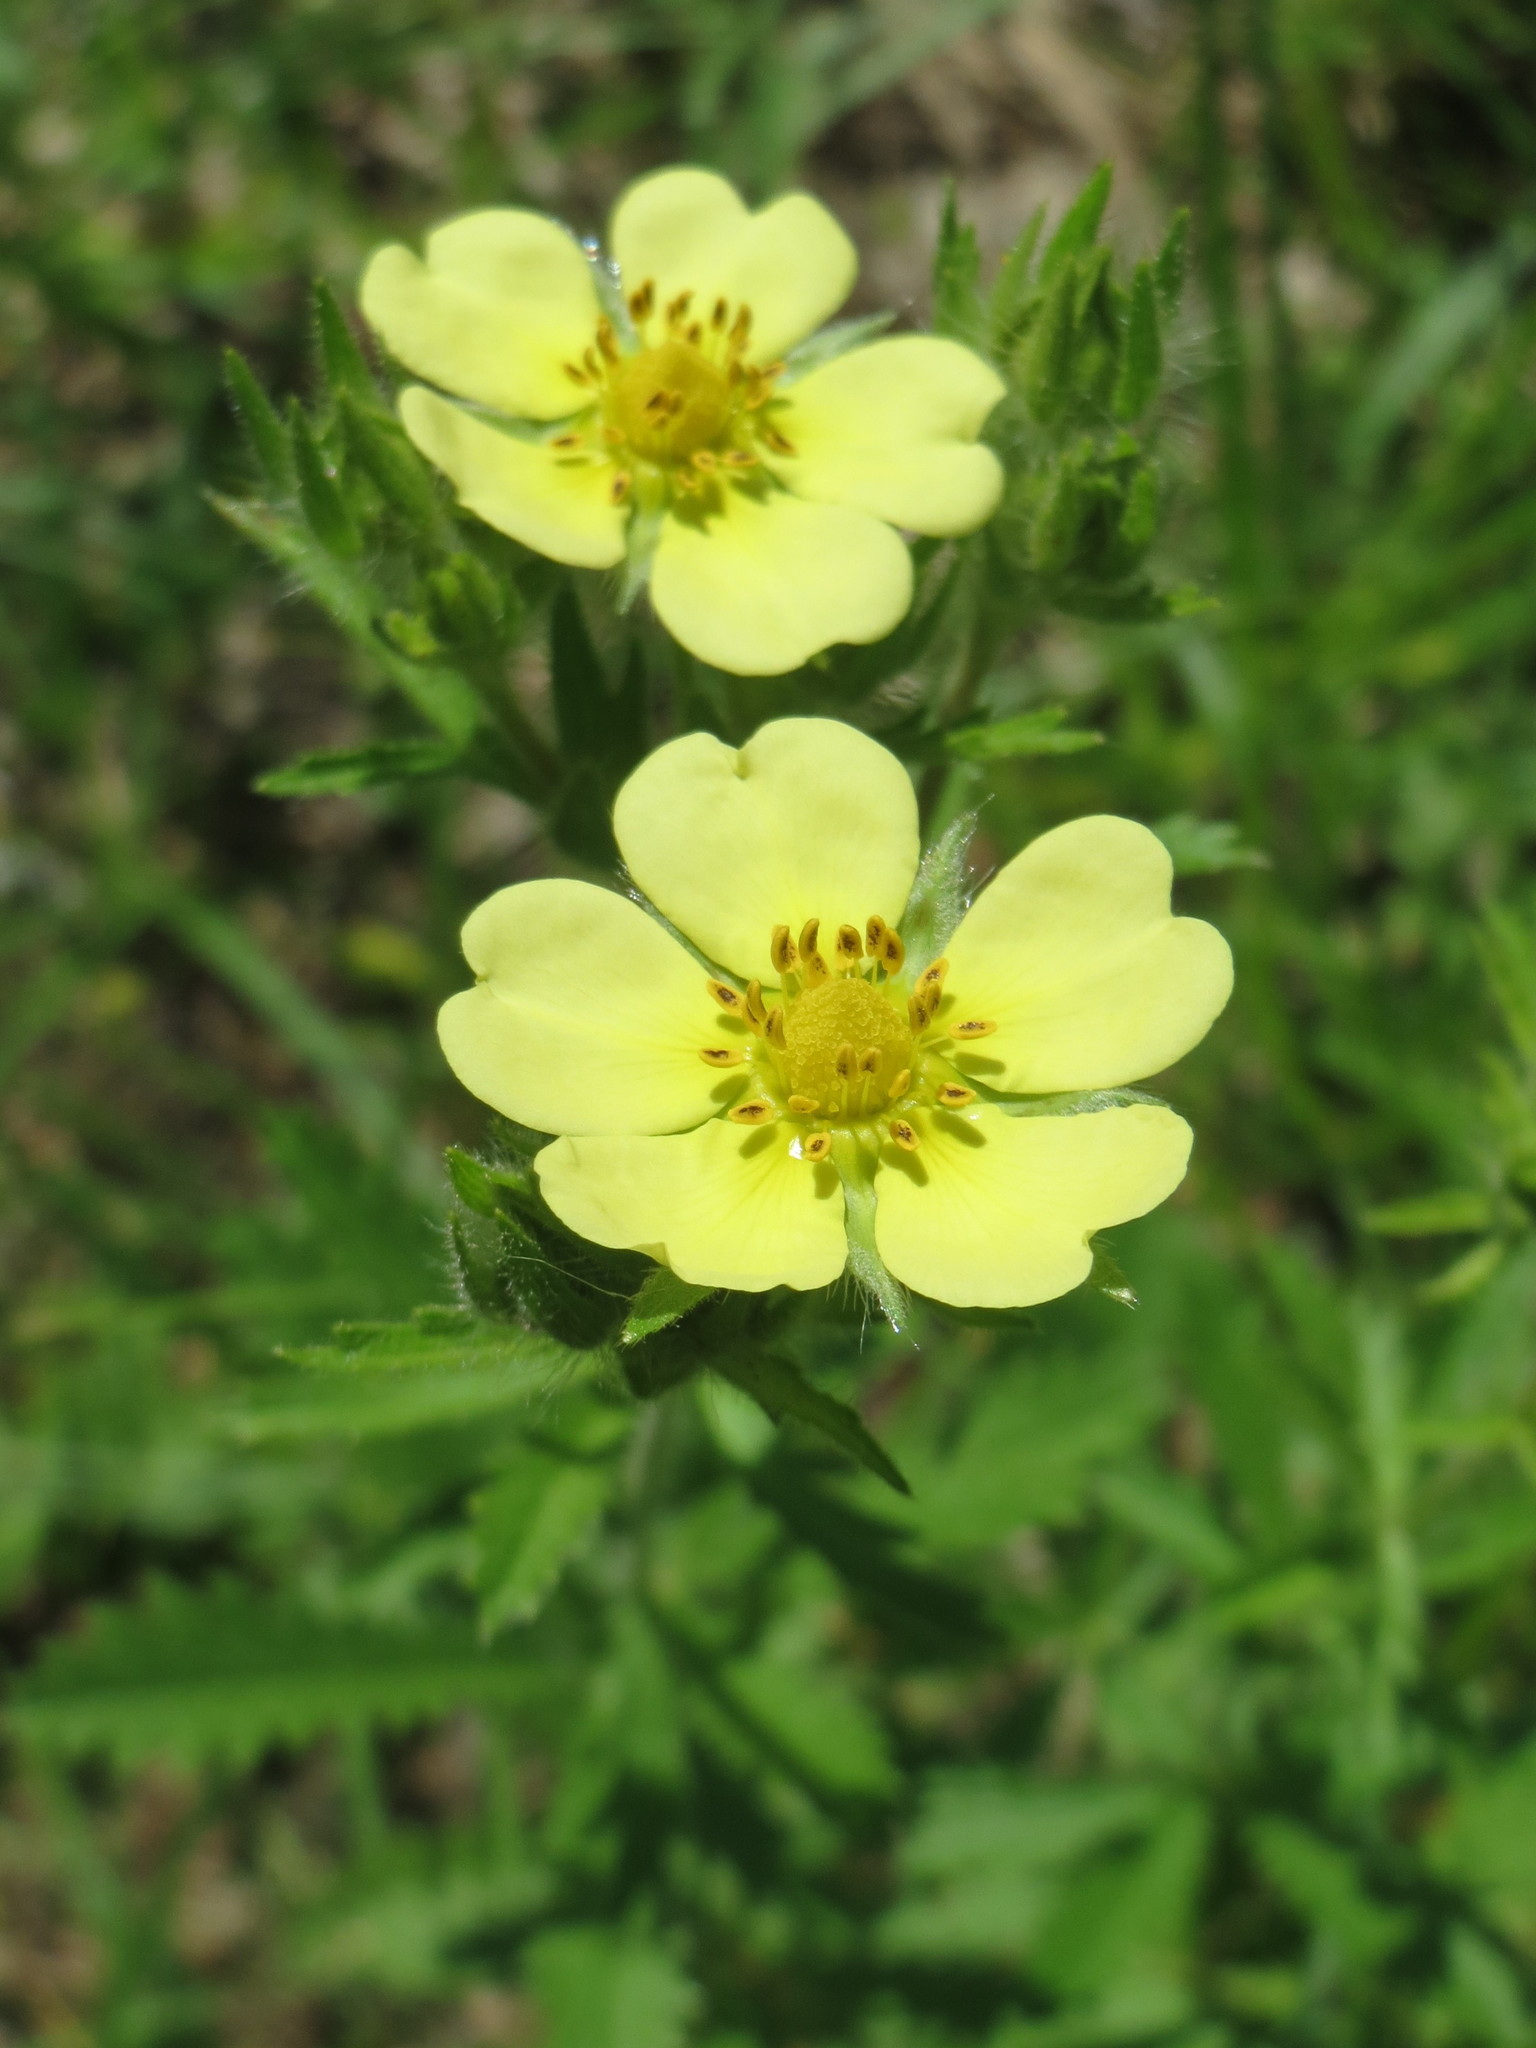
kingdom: Plantae
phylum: Tracheophyta
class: Magnoliopsida
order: Rosales
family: Rosaceae
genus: Potentilla
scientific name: Potentilla recta
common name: Sulphur cinquefoil
